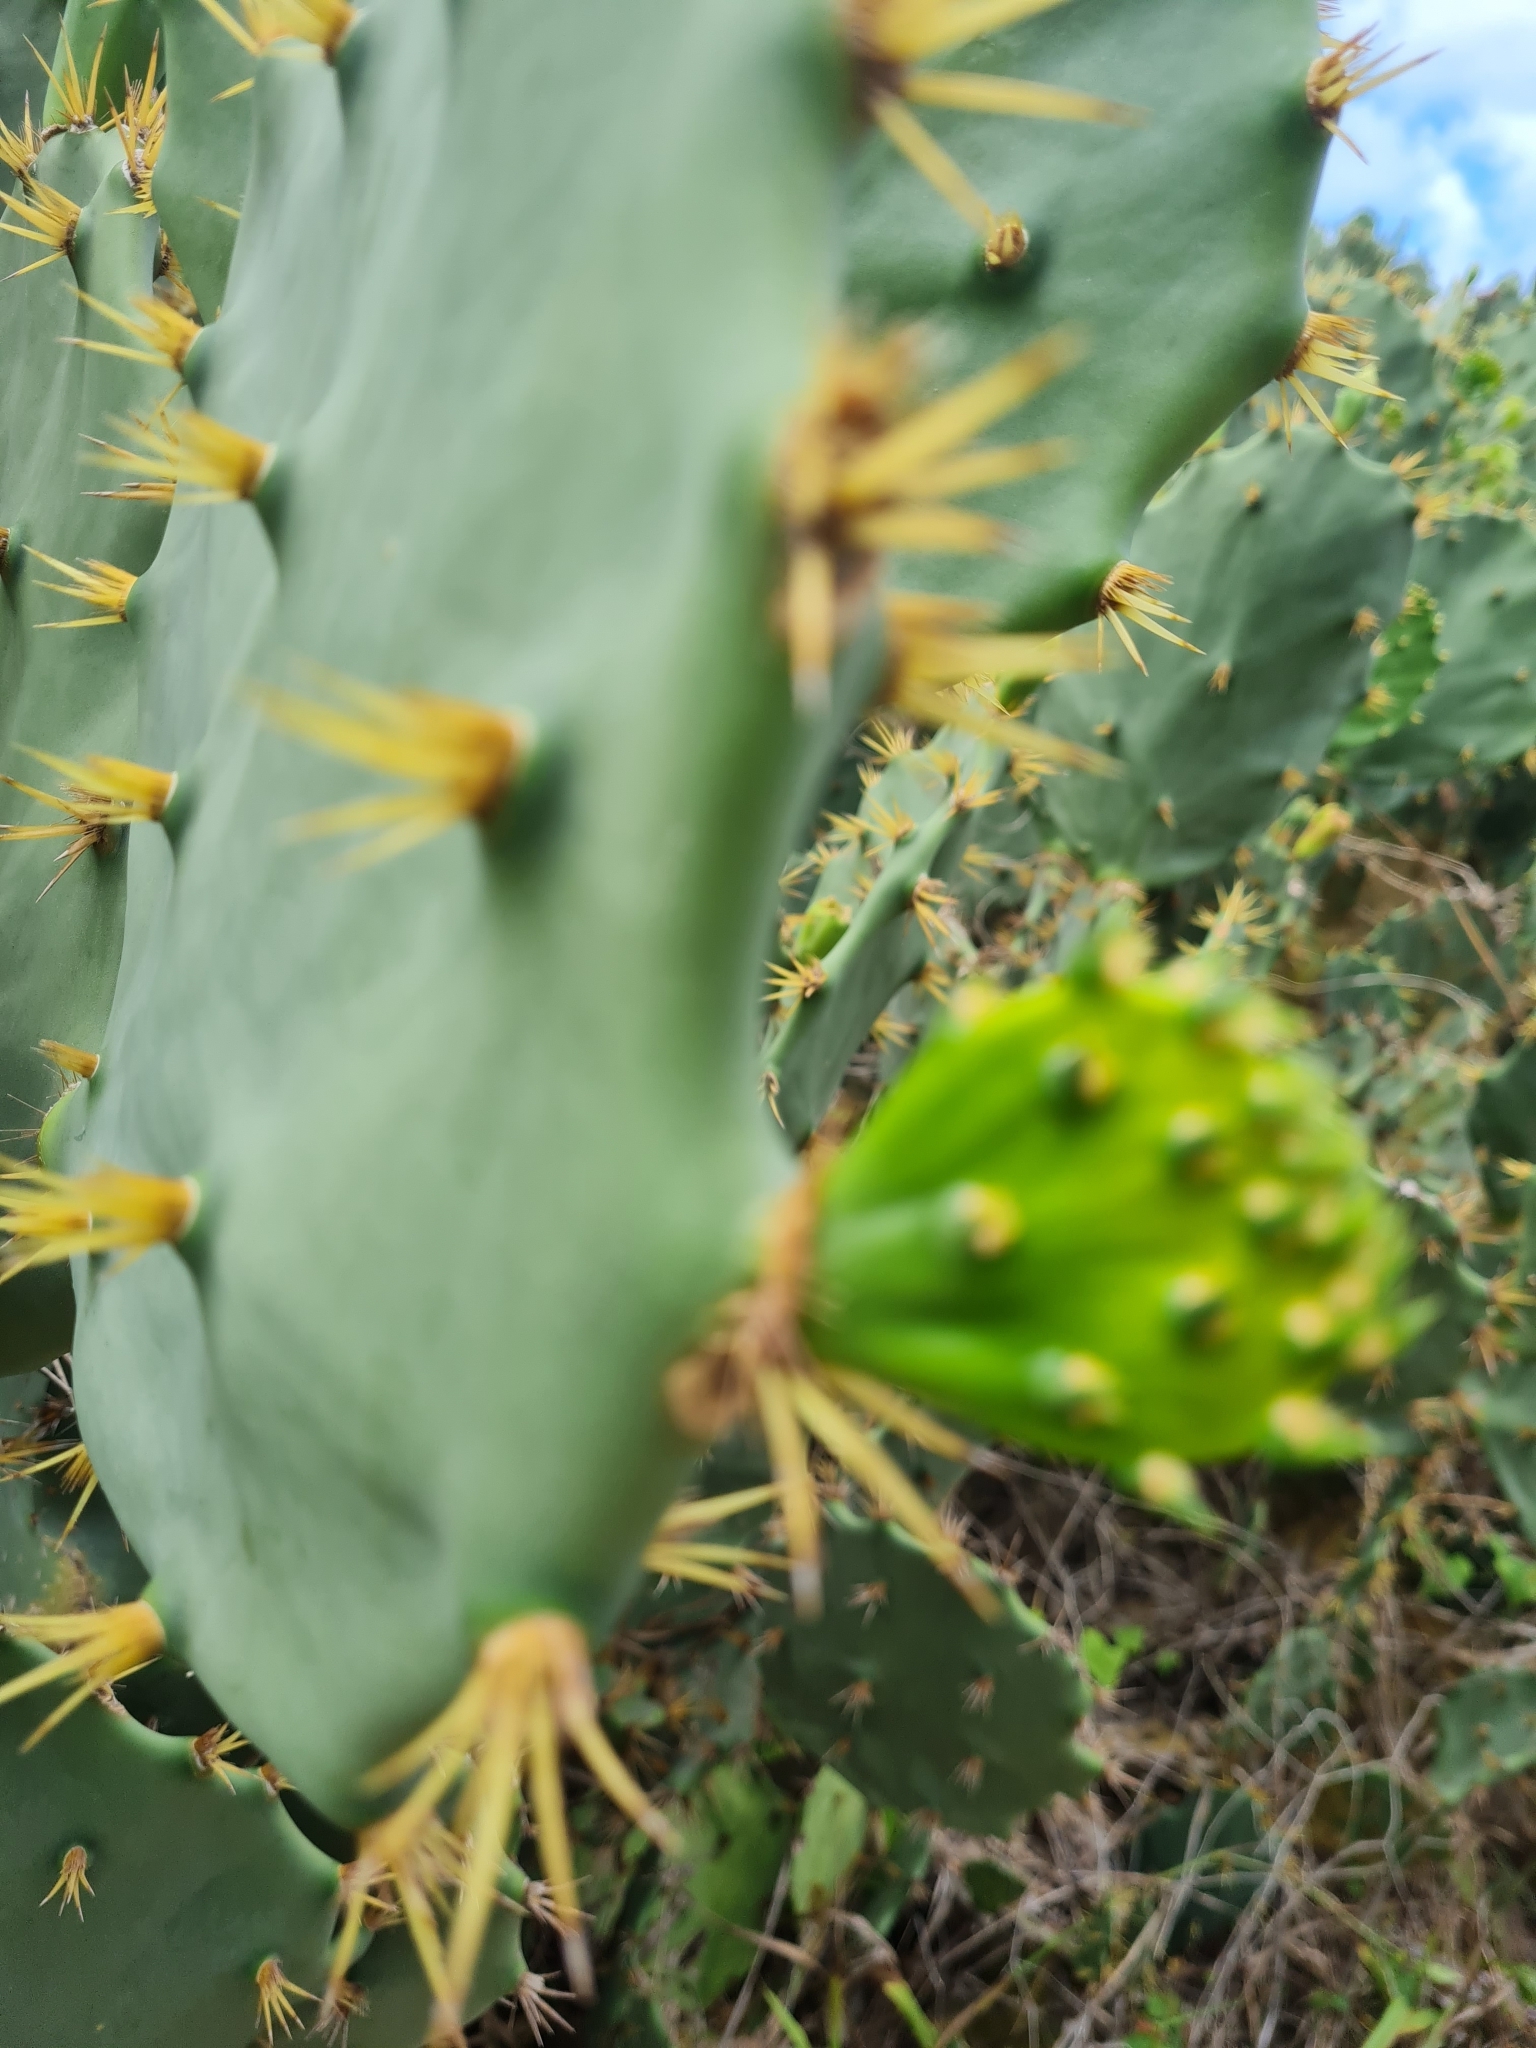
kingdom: Plantae
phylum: Tracheophyta
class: Magnoliopsida
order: Caryophyllales
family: Cactaceae
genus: Opuntia
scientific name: Opuntia dillenii
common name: Sour prickle
